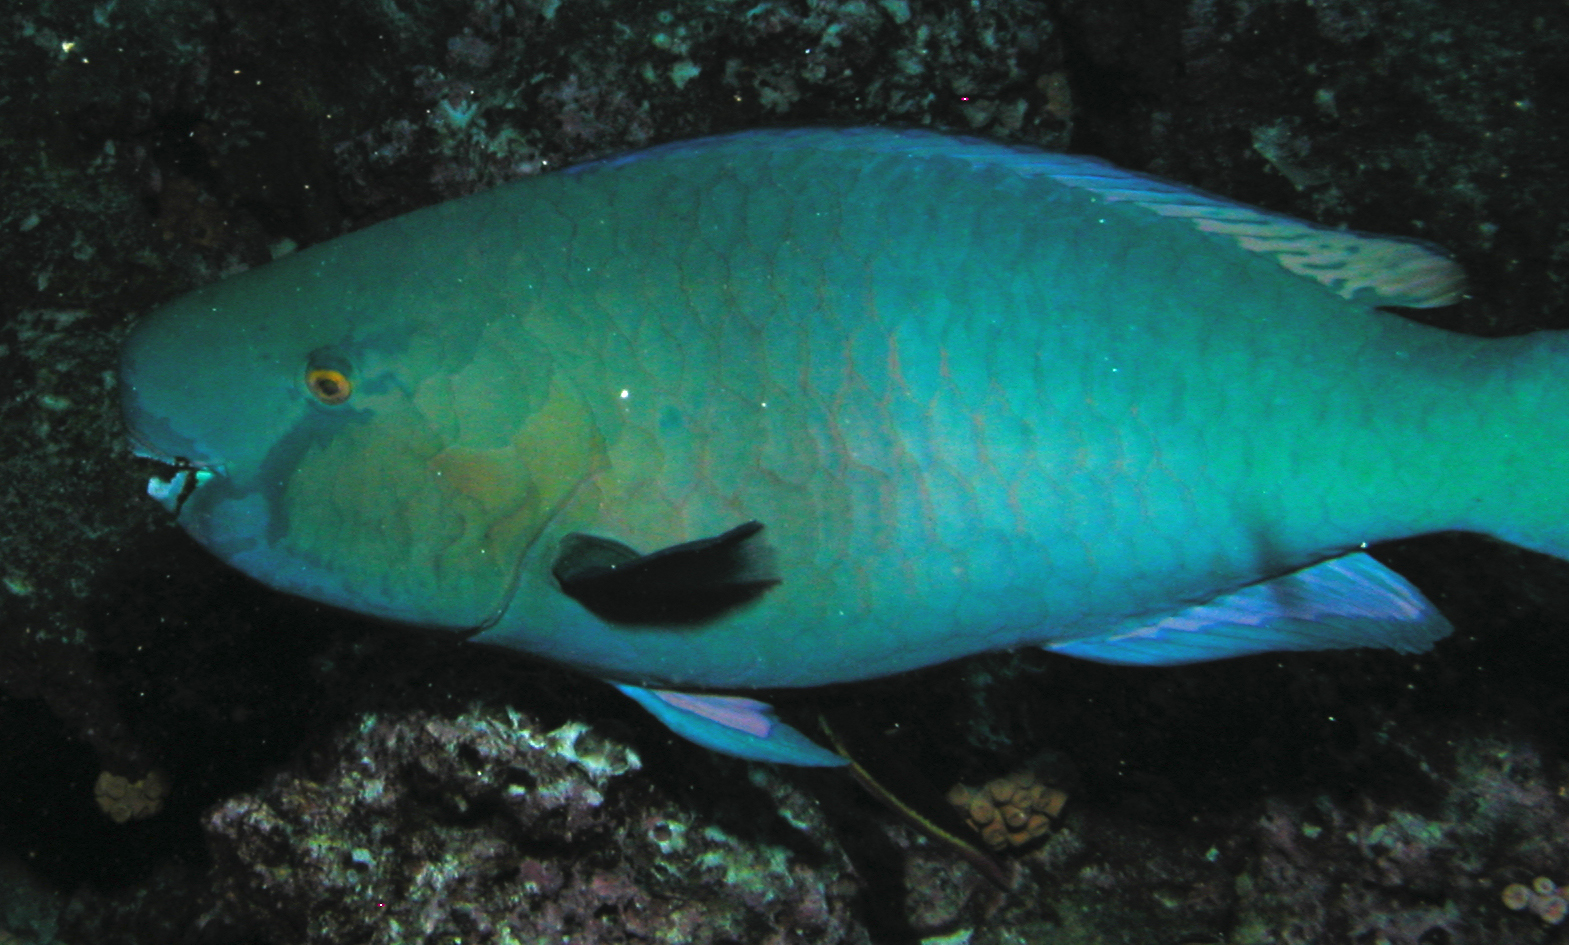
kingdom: Animalia
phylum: Chordata
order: Perciformes
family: Scaridae
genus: Scarus
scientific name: Scarus rubroviolaceus
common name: Ember parrotfish
